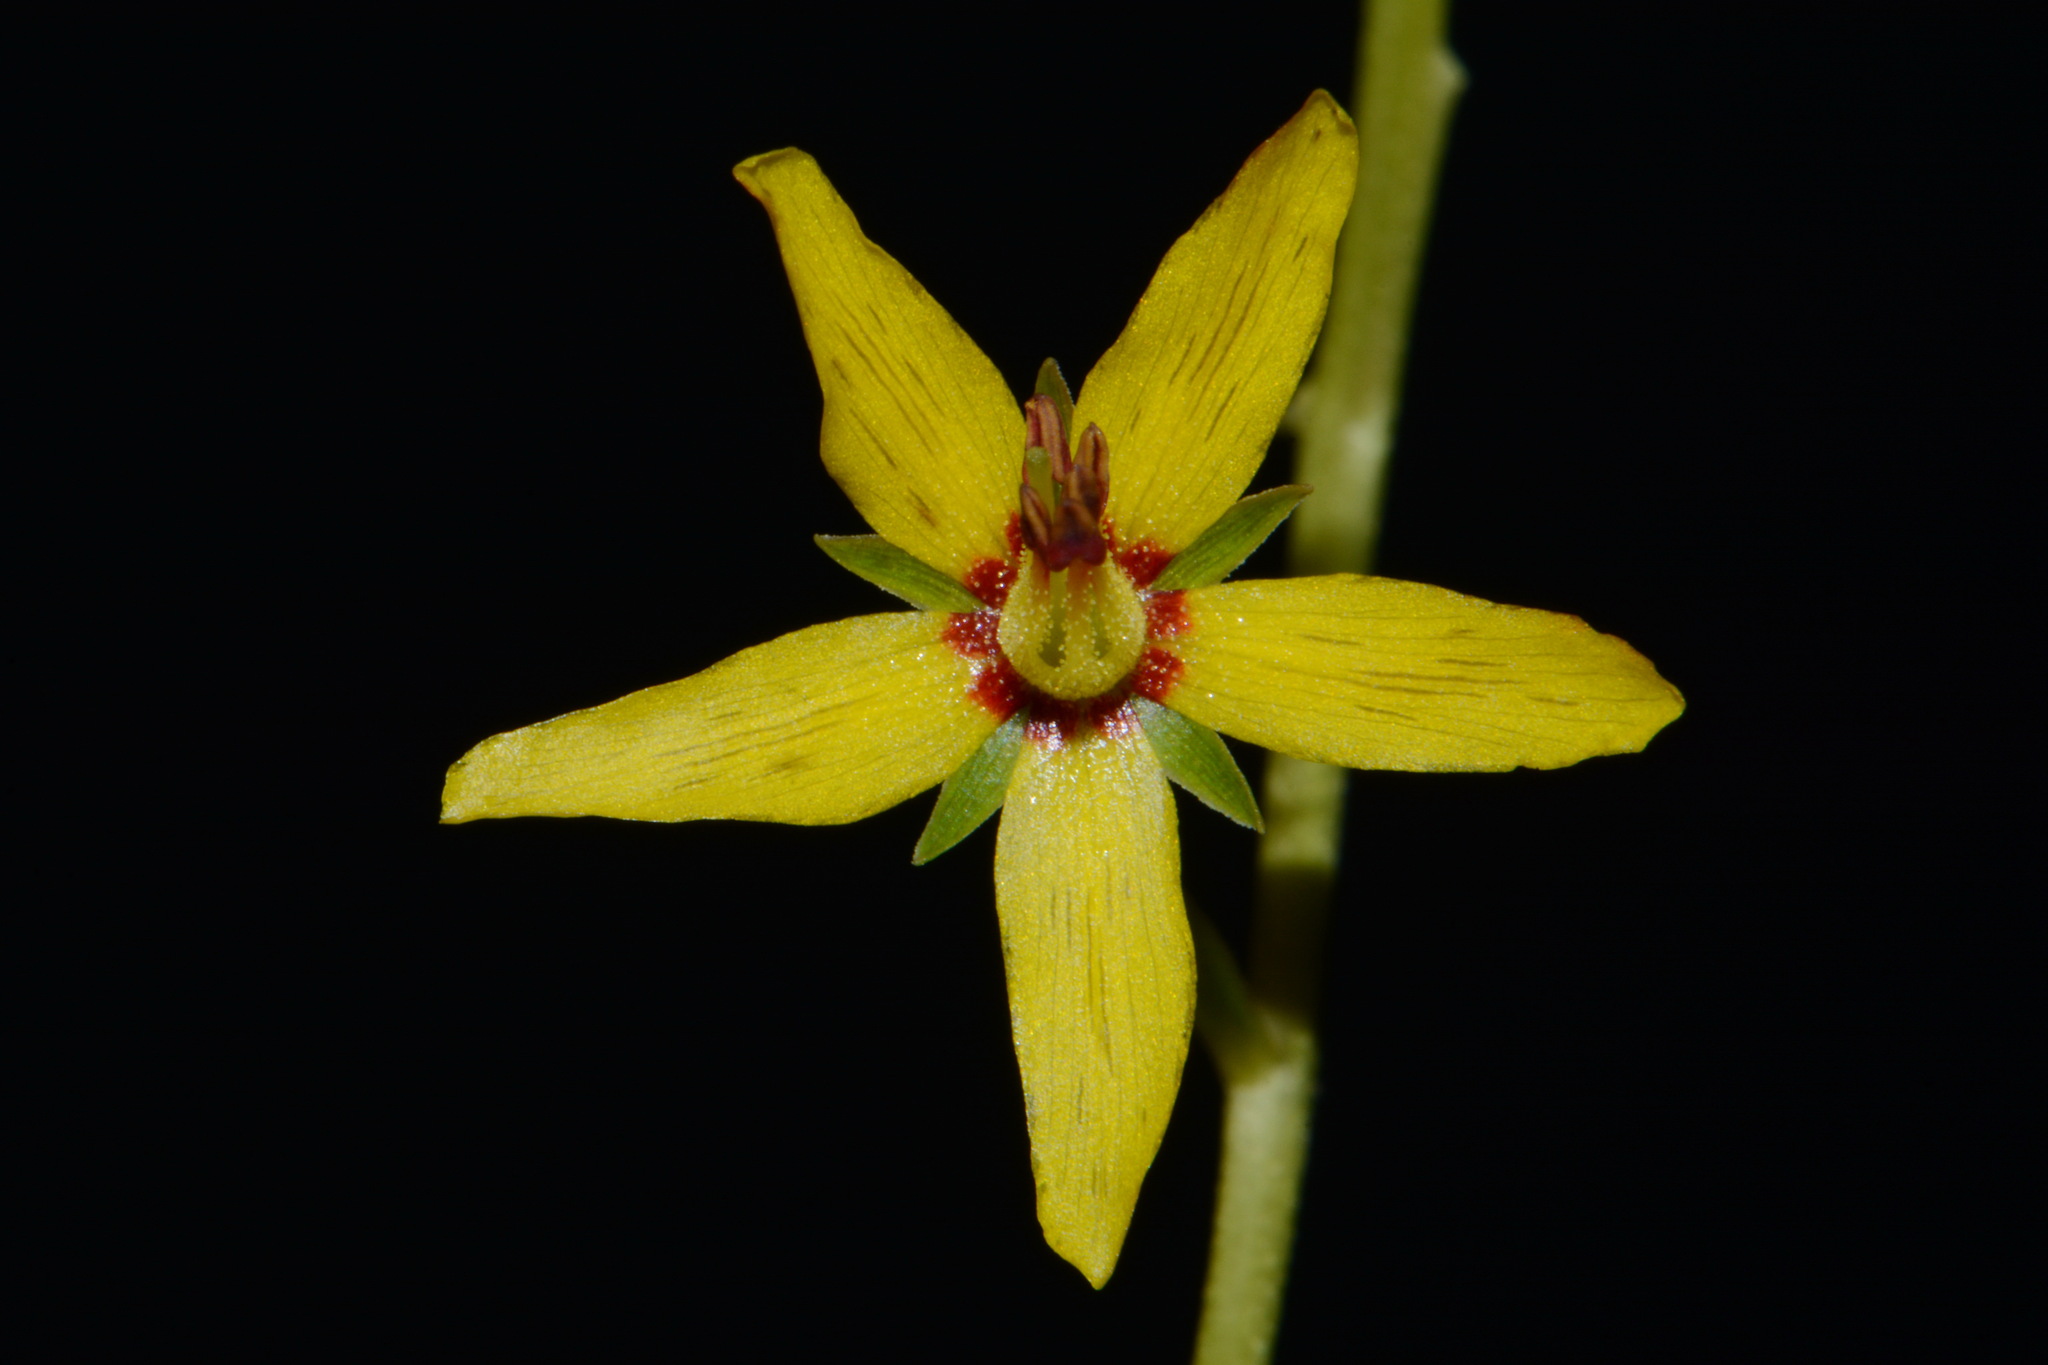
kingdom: Plantae
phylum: Tracheophyta
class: Magnoliopsida
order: Ericales
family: Primulaceae
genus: Lysimachia
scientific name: Lysimachia terrestris
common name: Lake loosestrife
